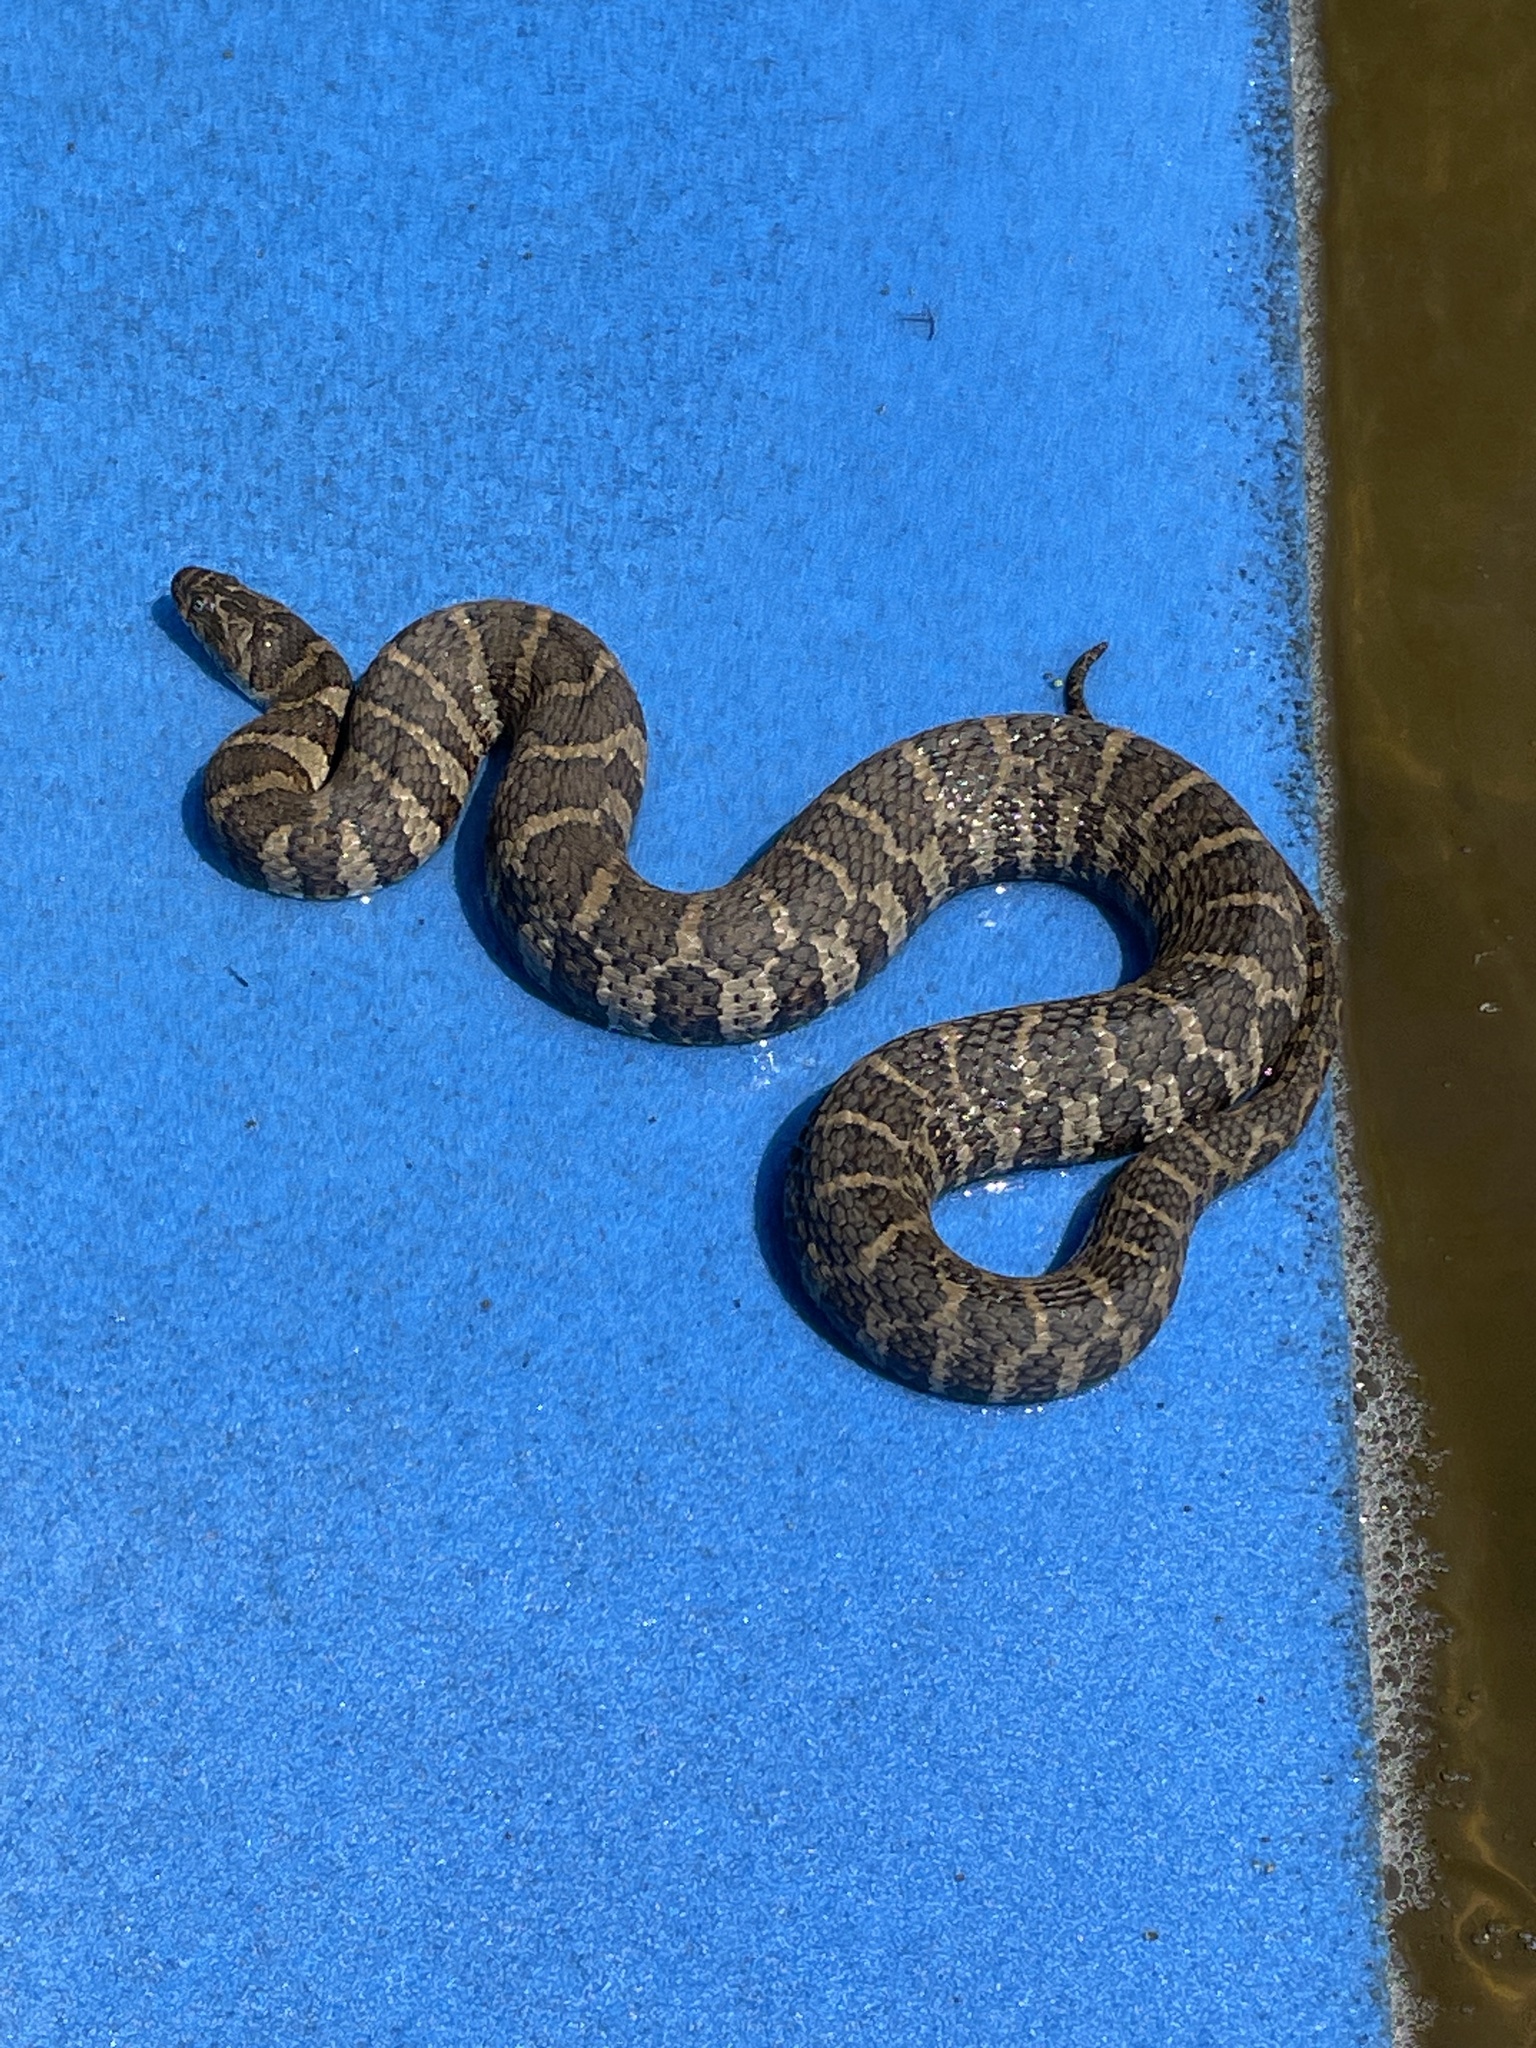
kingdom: Animalia
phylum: Chordata
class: Squamata
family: Colubridae
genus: Nerodia
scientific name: Nerodia sipedon
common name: Northern water snake
